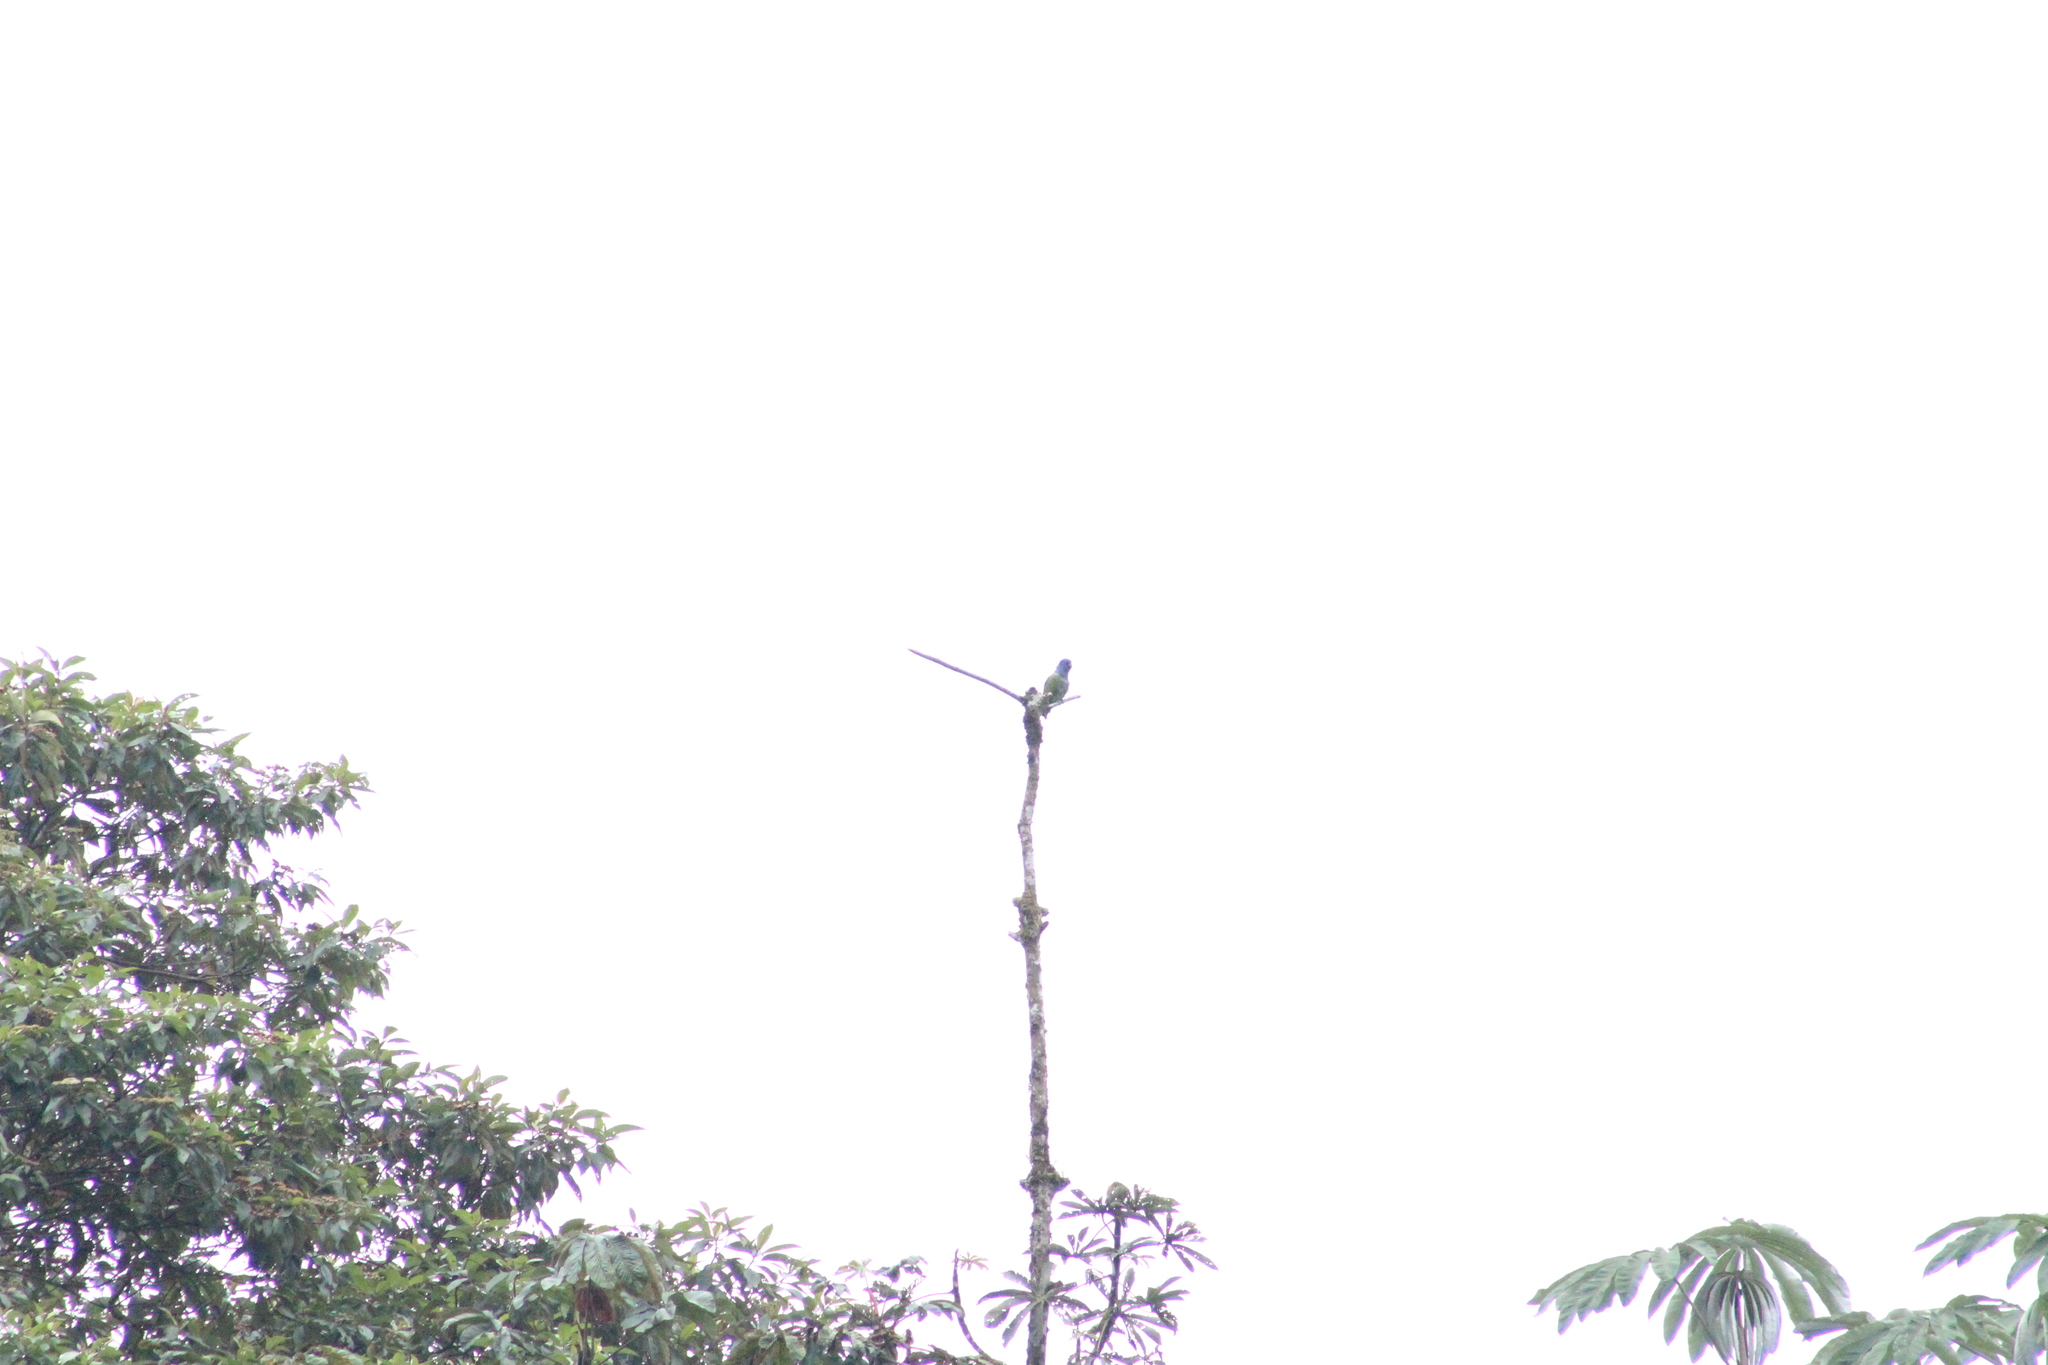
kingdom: Animalia
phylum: Chordata
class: Aves
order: Psittaciformes
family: Psittacidae
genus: Pionus
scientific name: Pionus menstruus
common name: Blue-headed parrot
